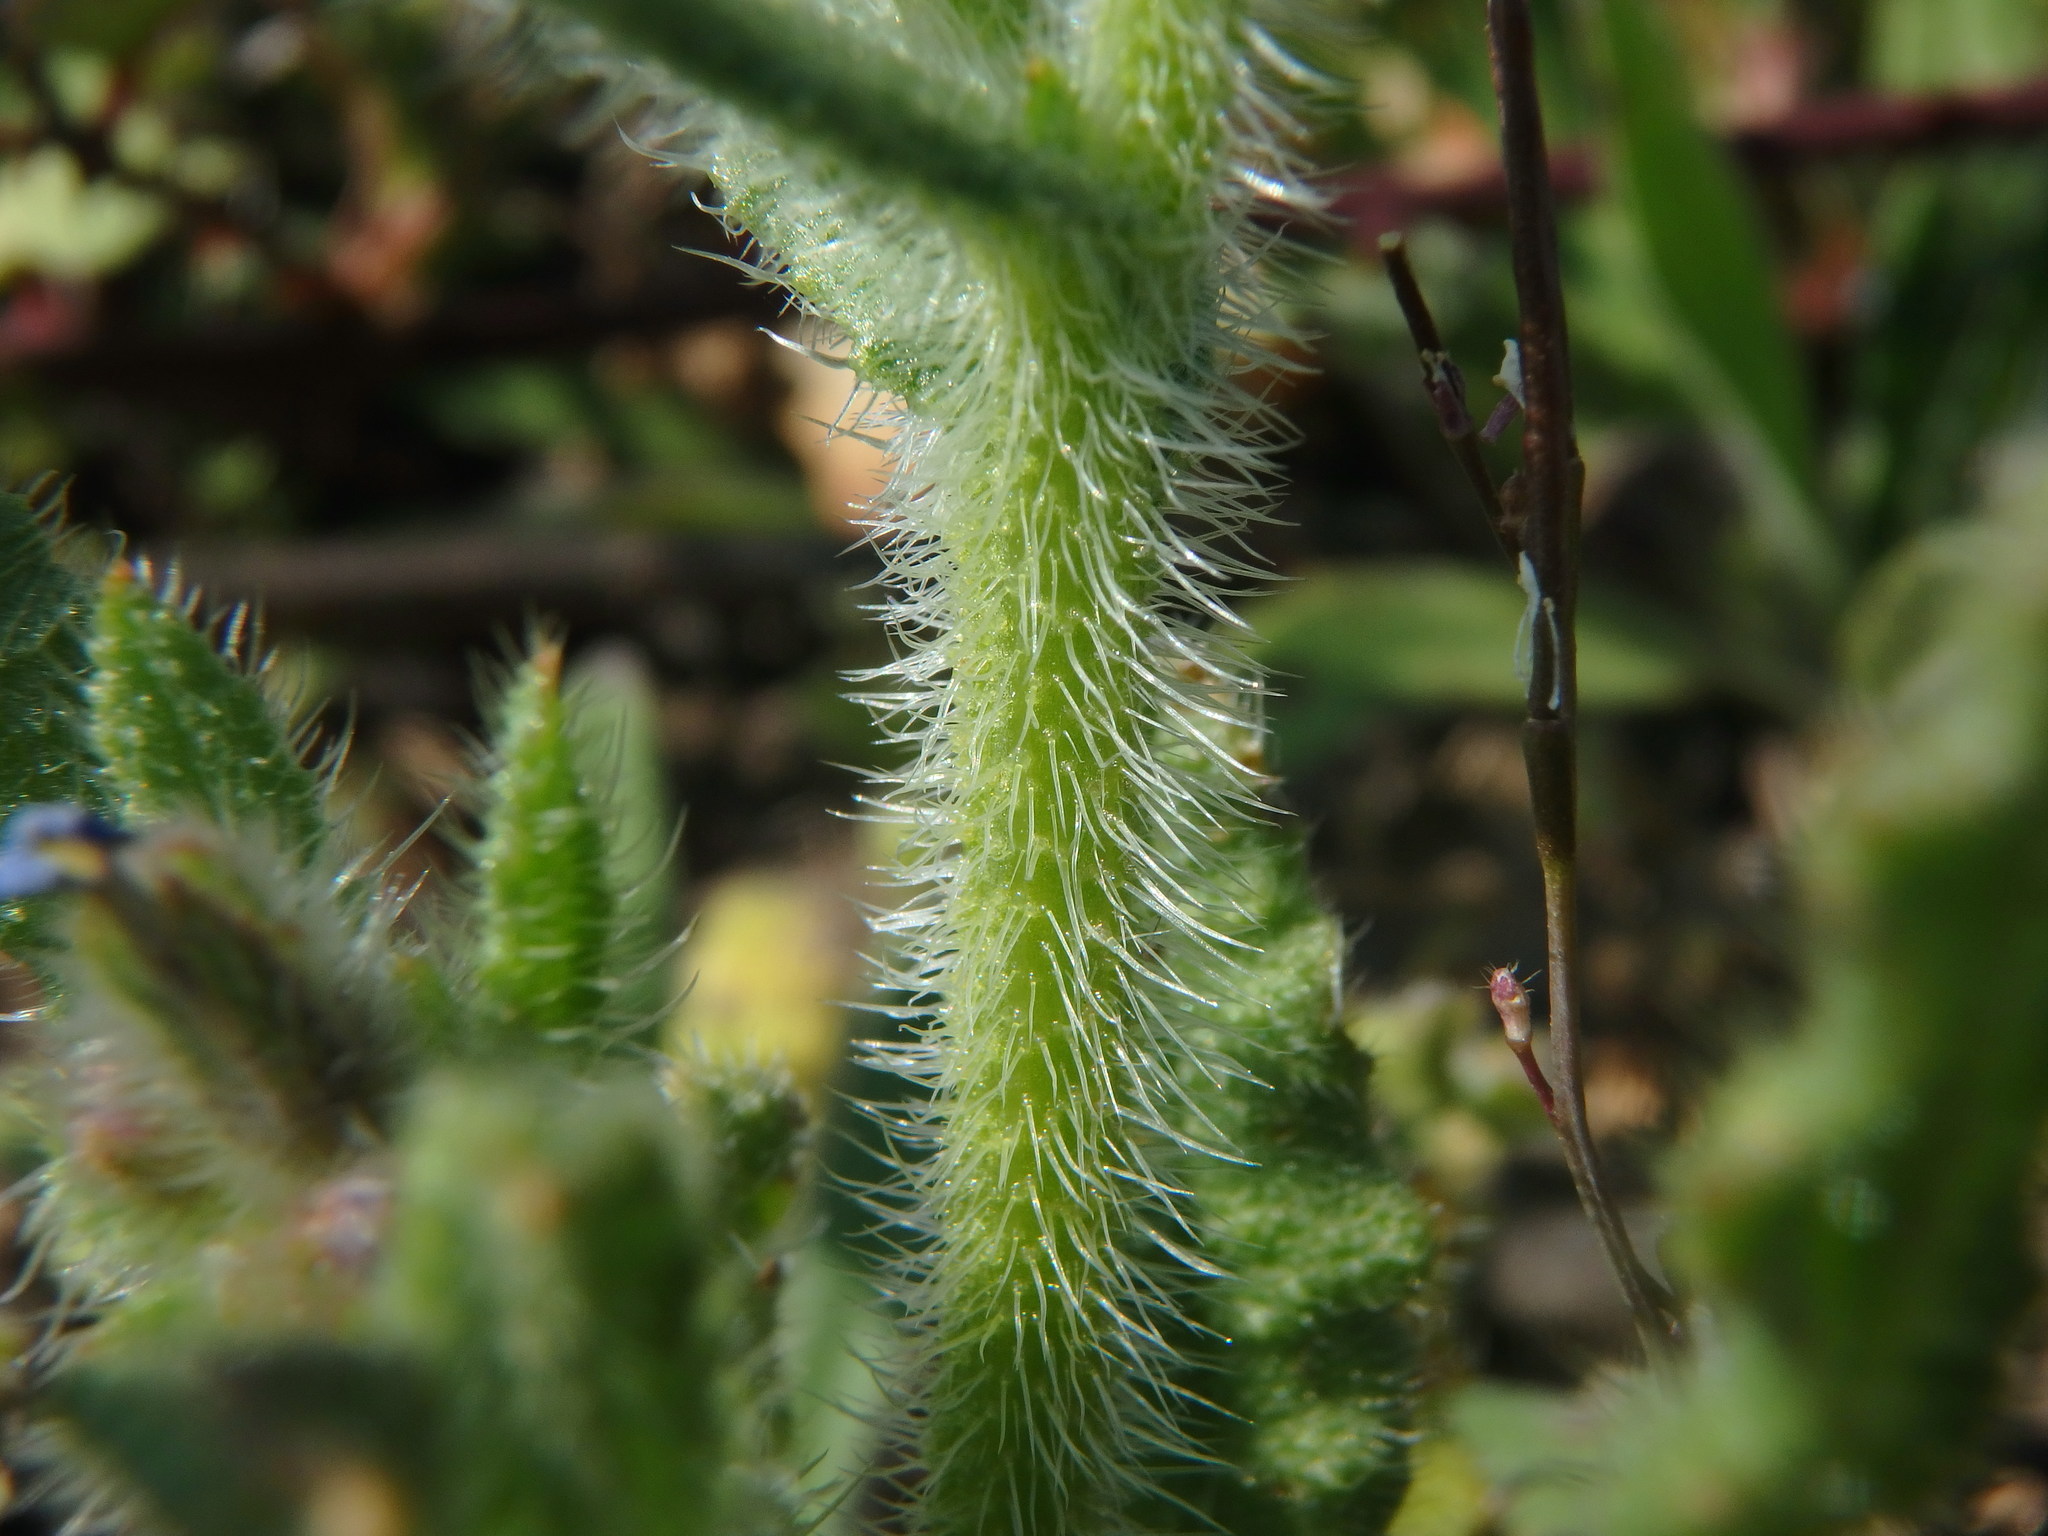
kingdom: Plantae
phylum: Tracheophyta
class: Magnoliopsida
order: Boraginales
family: Boraginaceae
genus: Lycopsis
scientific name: Lycopsis arvensis
